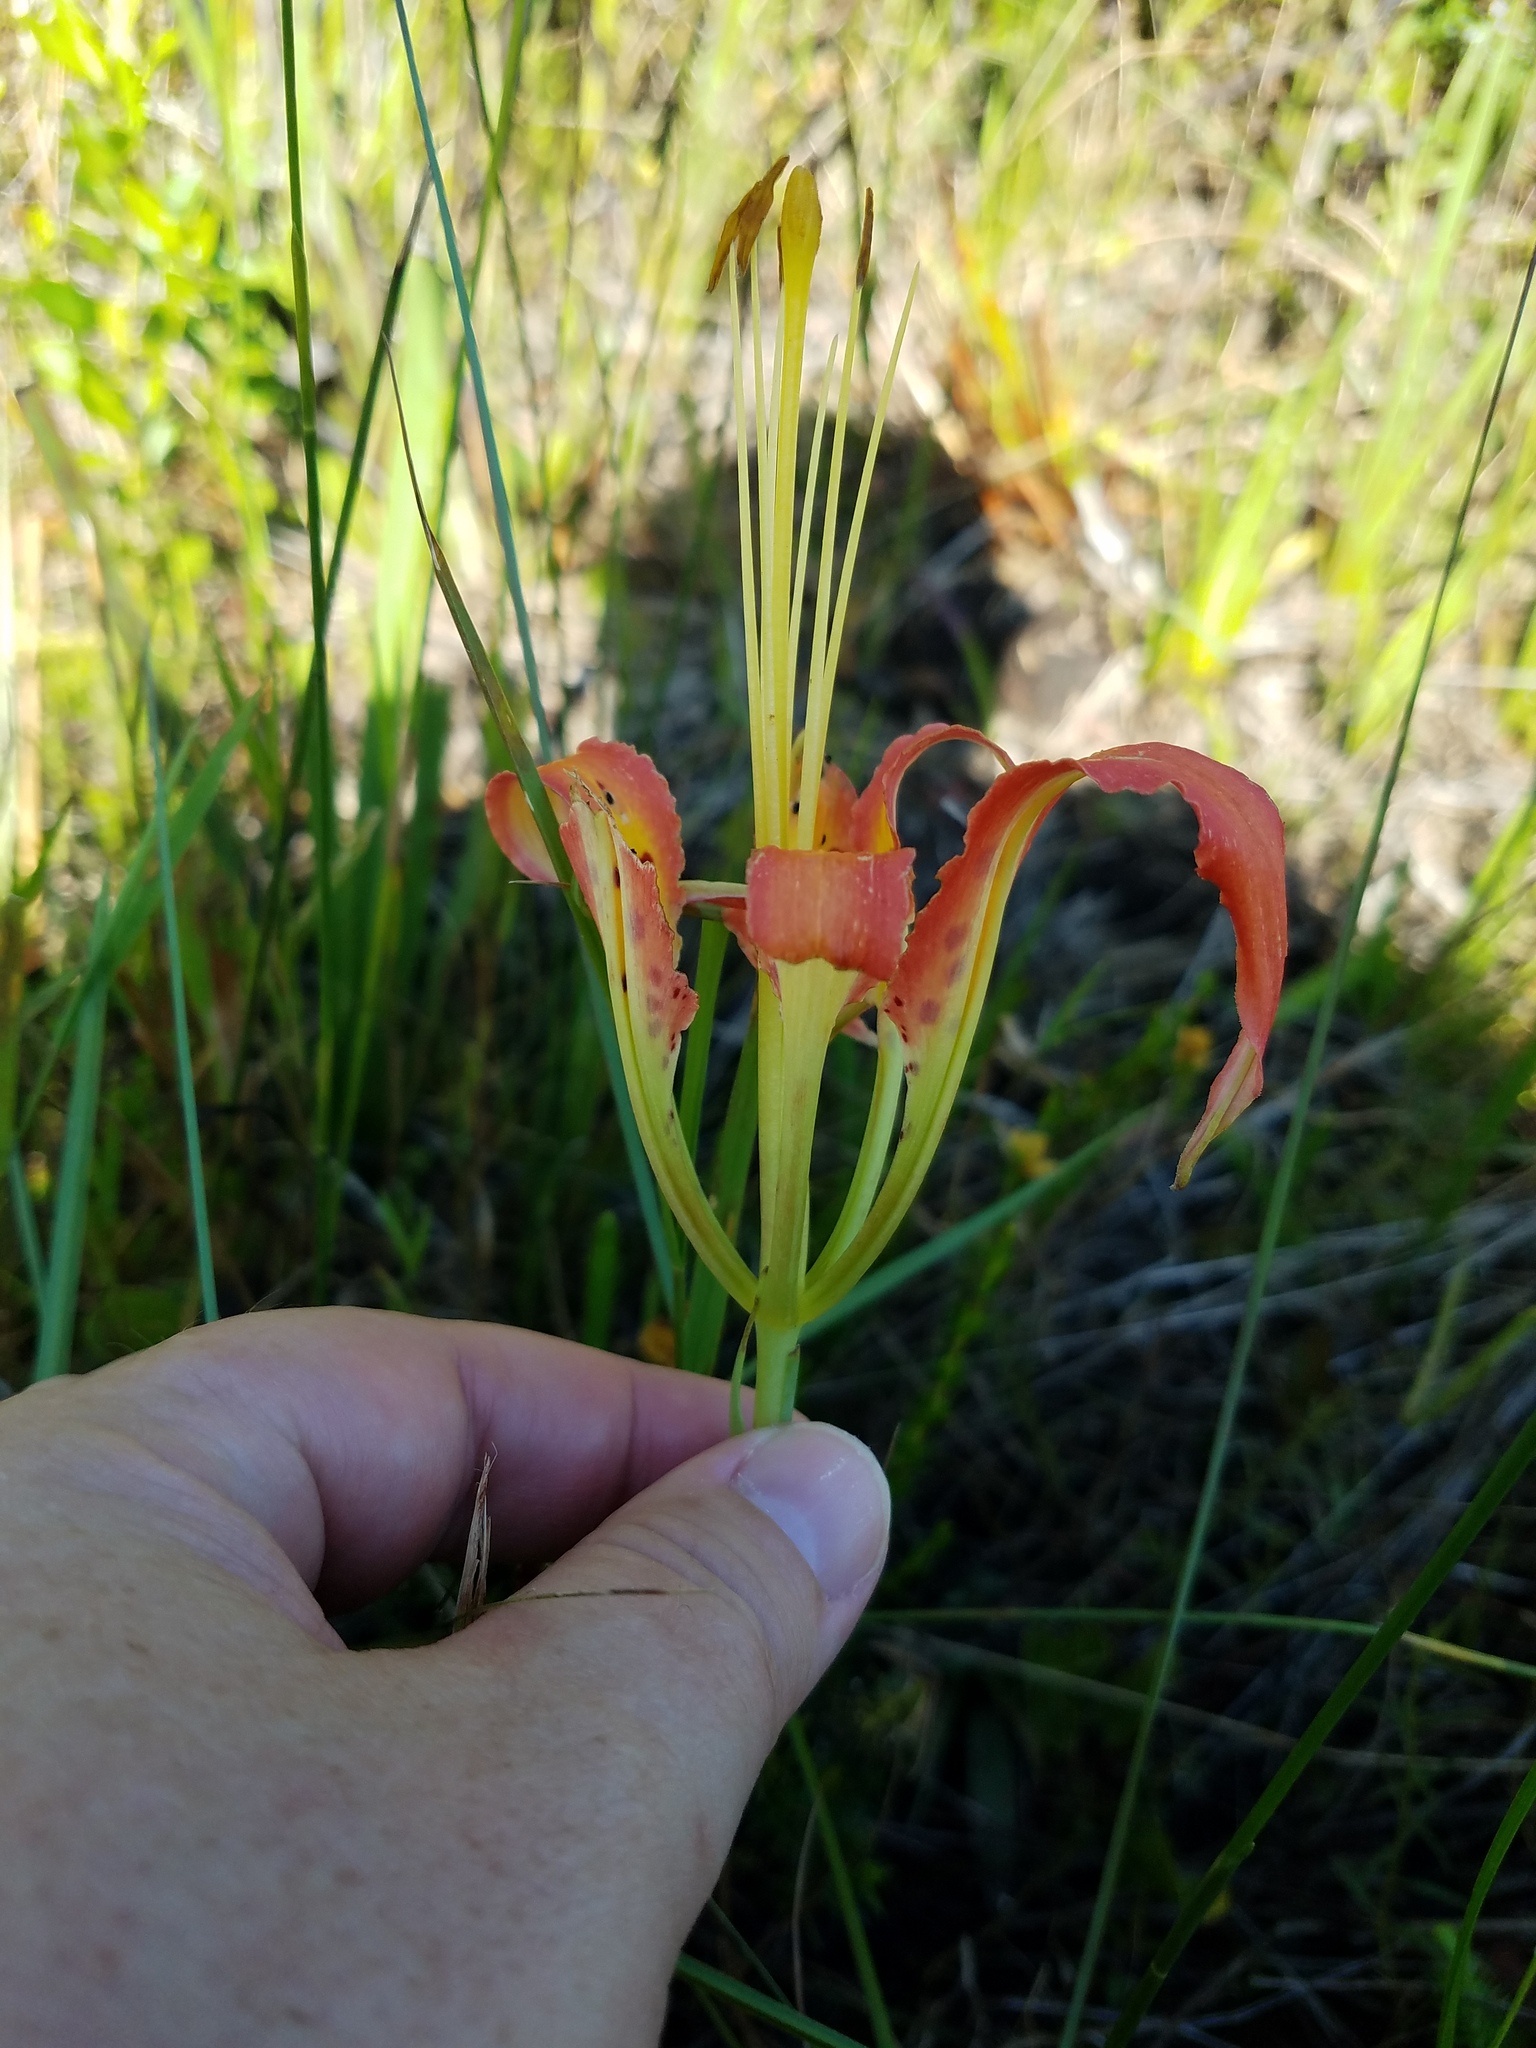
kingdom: Plantae
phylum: Tracheophyta
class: Liliopsida
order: Liliales
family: Liliaceae
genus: Lilium
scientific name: Lilium catesbaei
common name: Catesby's lily
